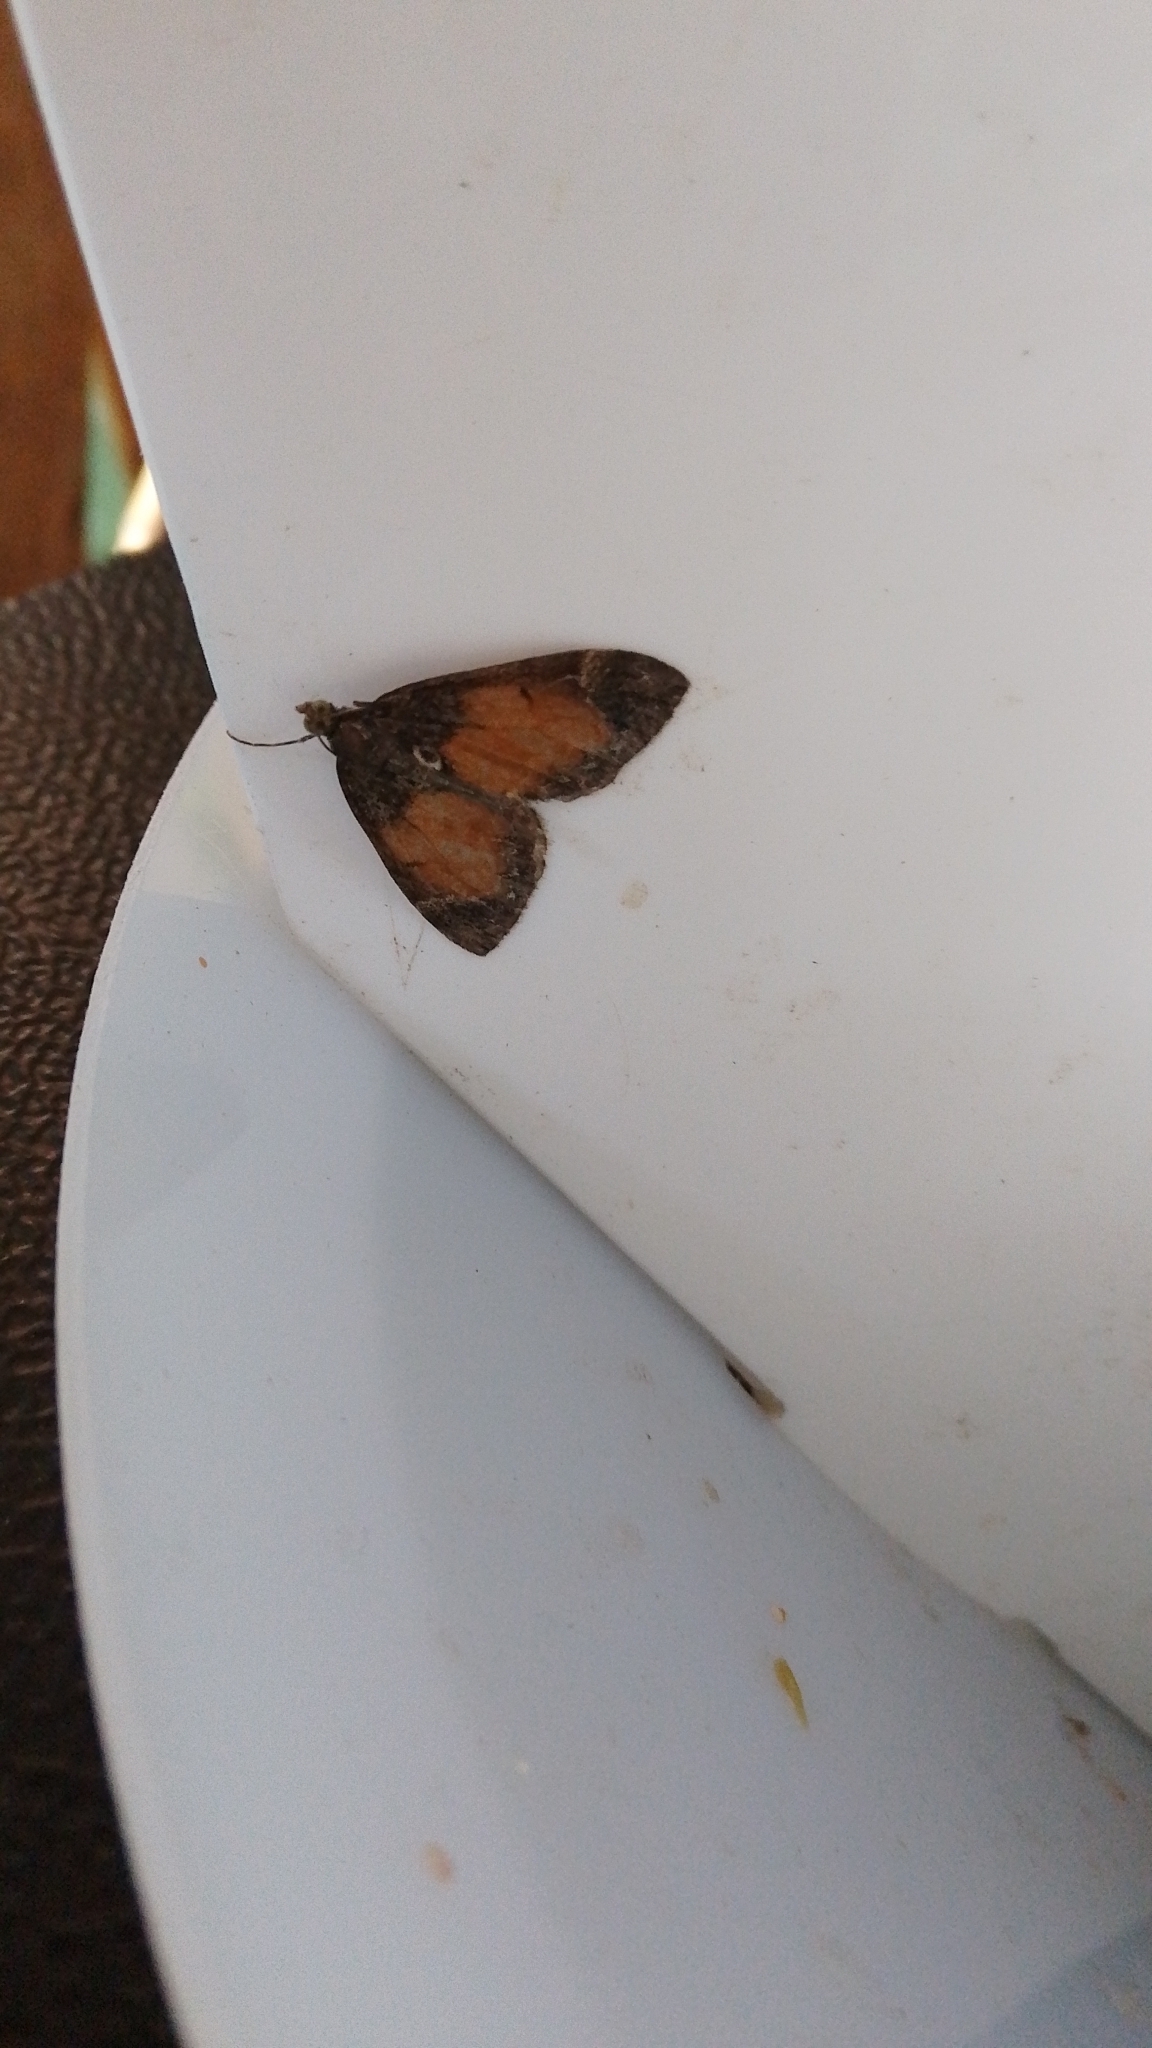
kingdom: Animalia
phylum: Arthropoda
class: Insecta
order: Lepidoptera
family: Geometridae
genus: Dysstroma
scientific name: Dysstroma truncata
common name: Common marbled carpet
